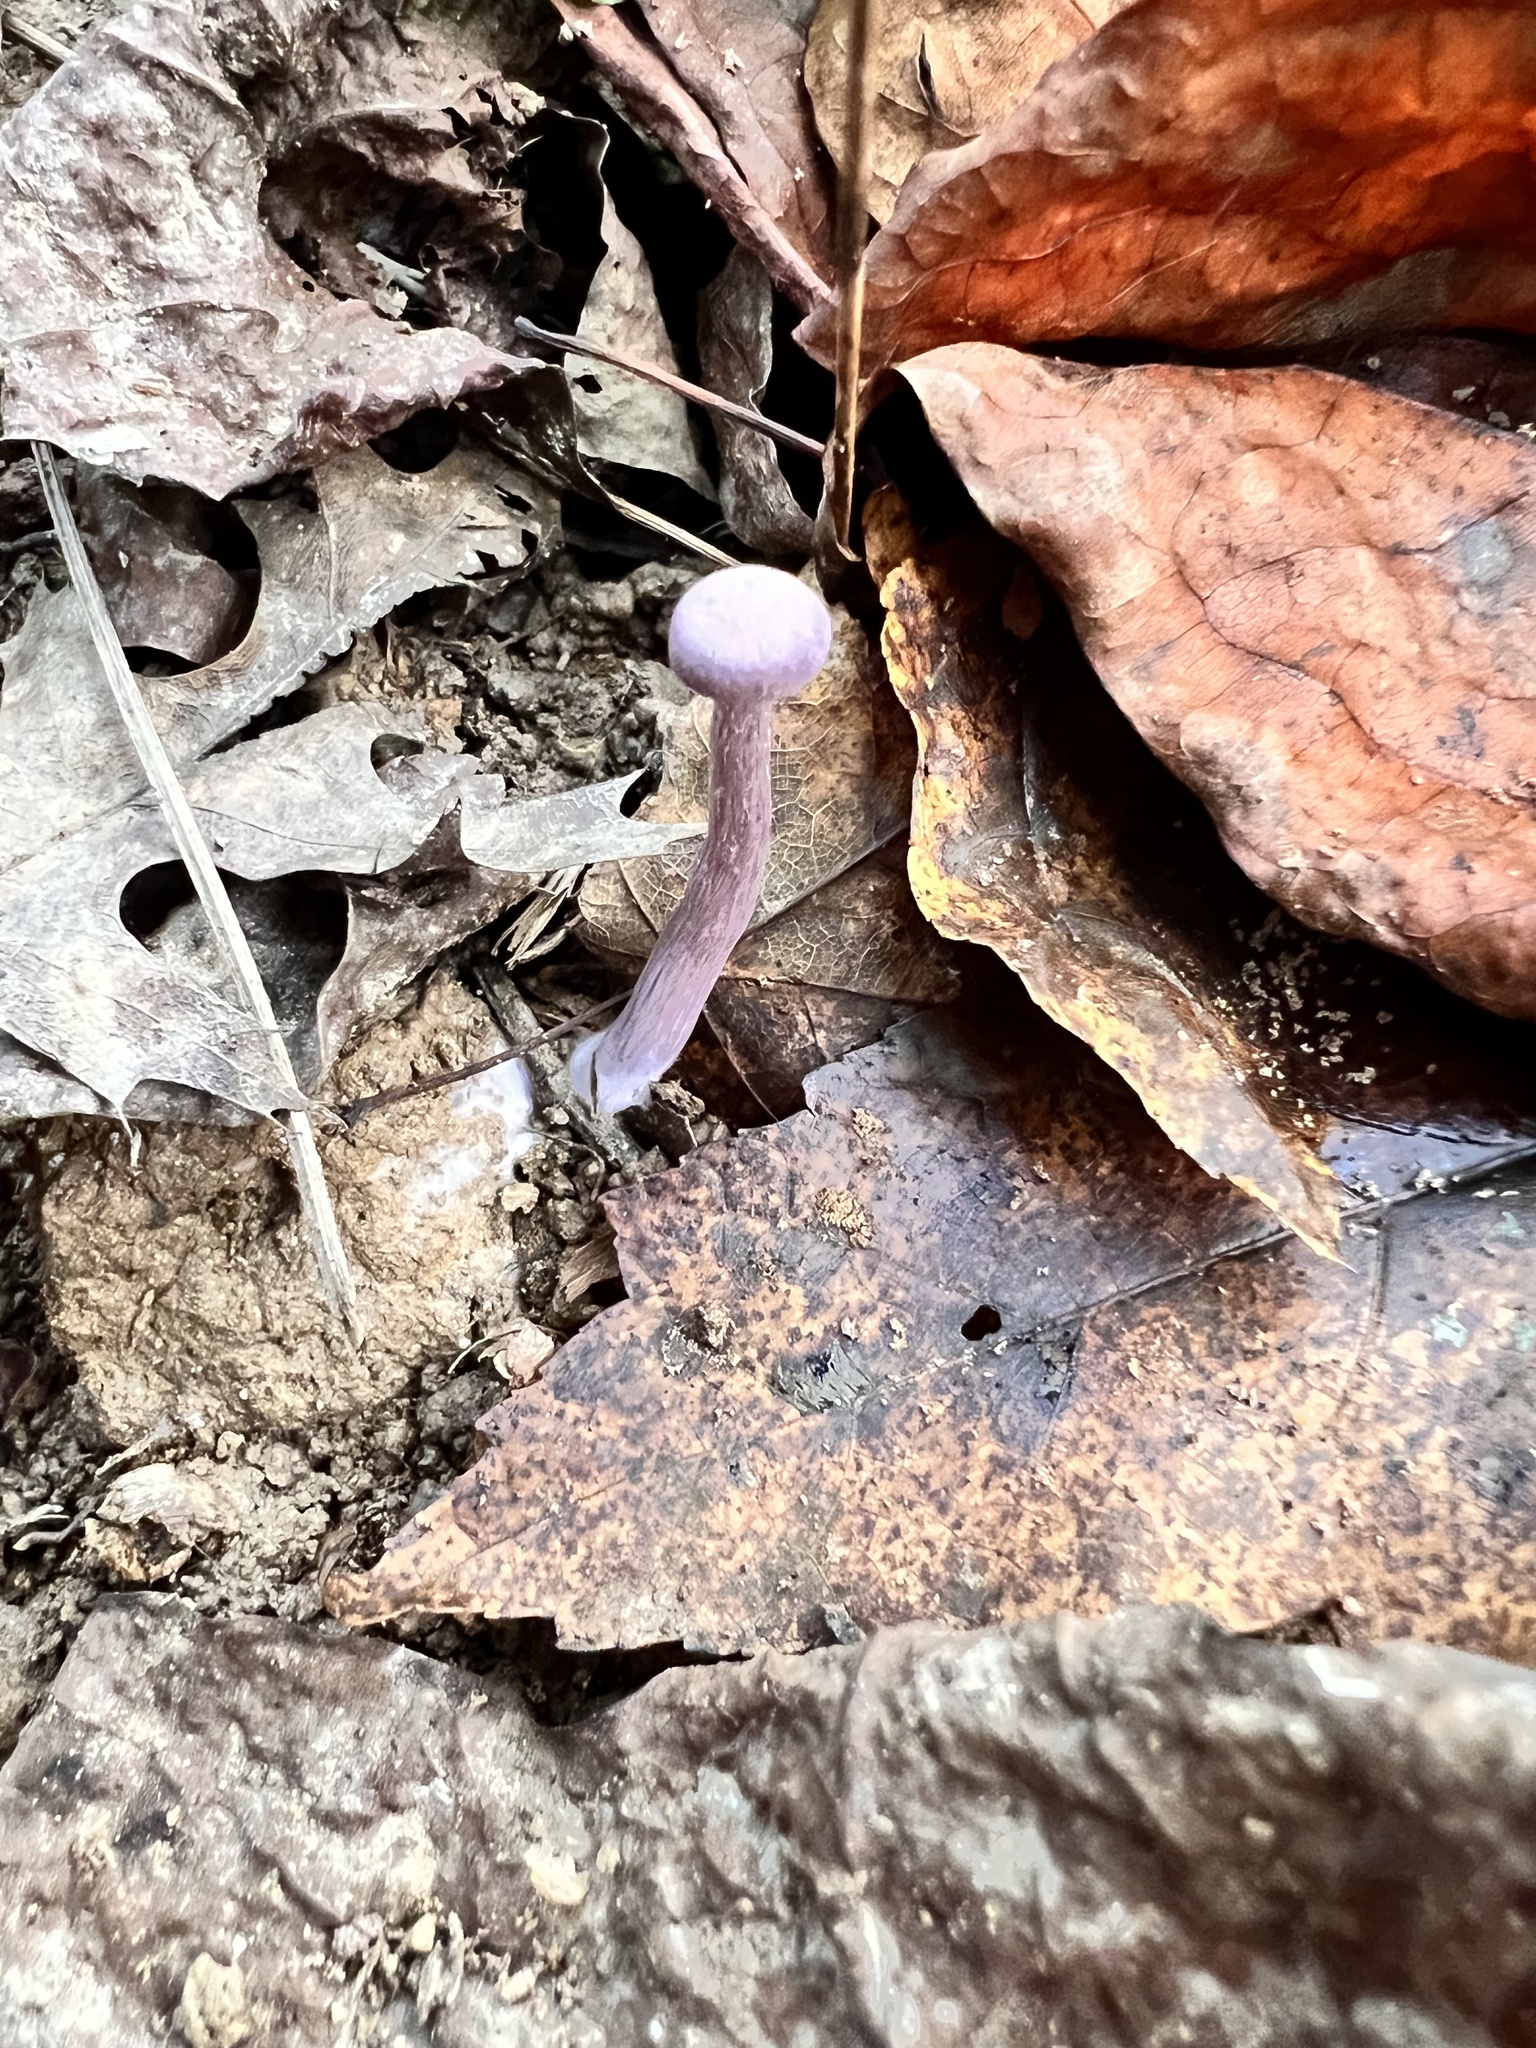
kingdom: Fungi
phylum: Basidiomycota
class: Agaricomycetes
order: Agaricales
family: Hydnangiaceae
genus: Laccaria
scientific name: Laccaria amethystina
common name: Amethyst deceiver
